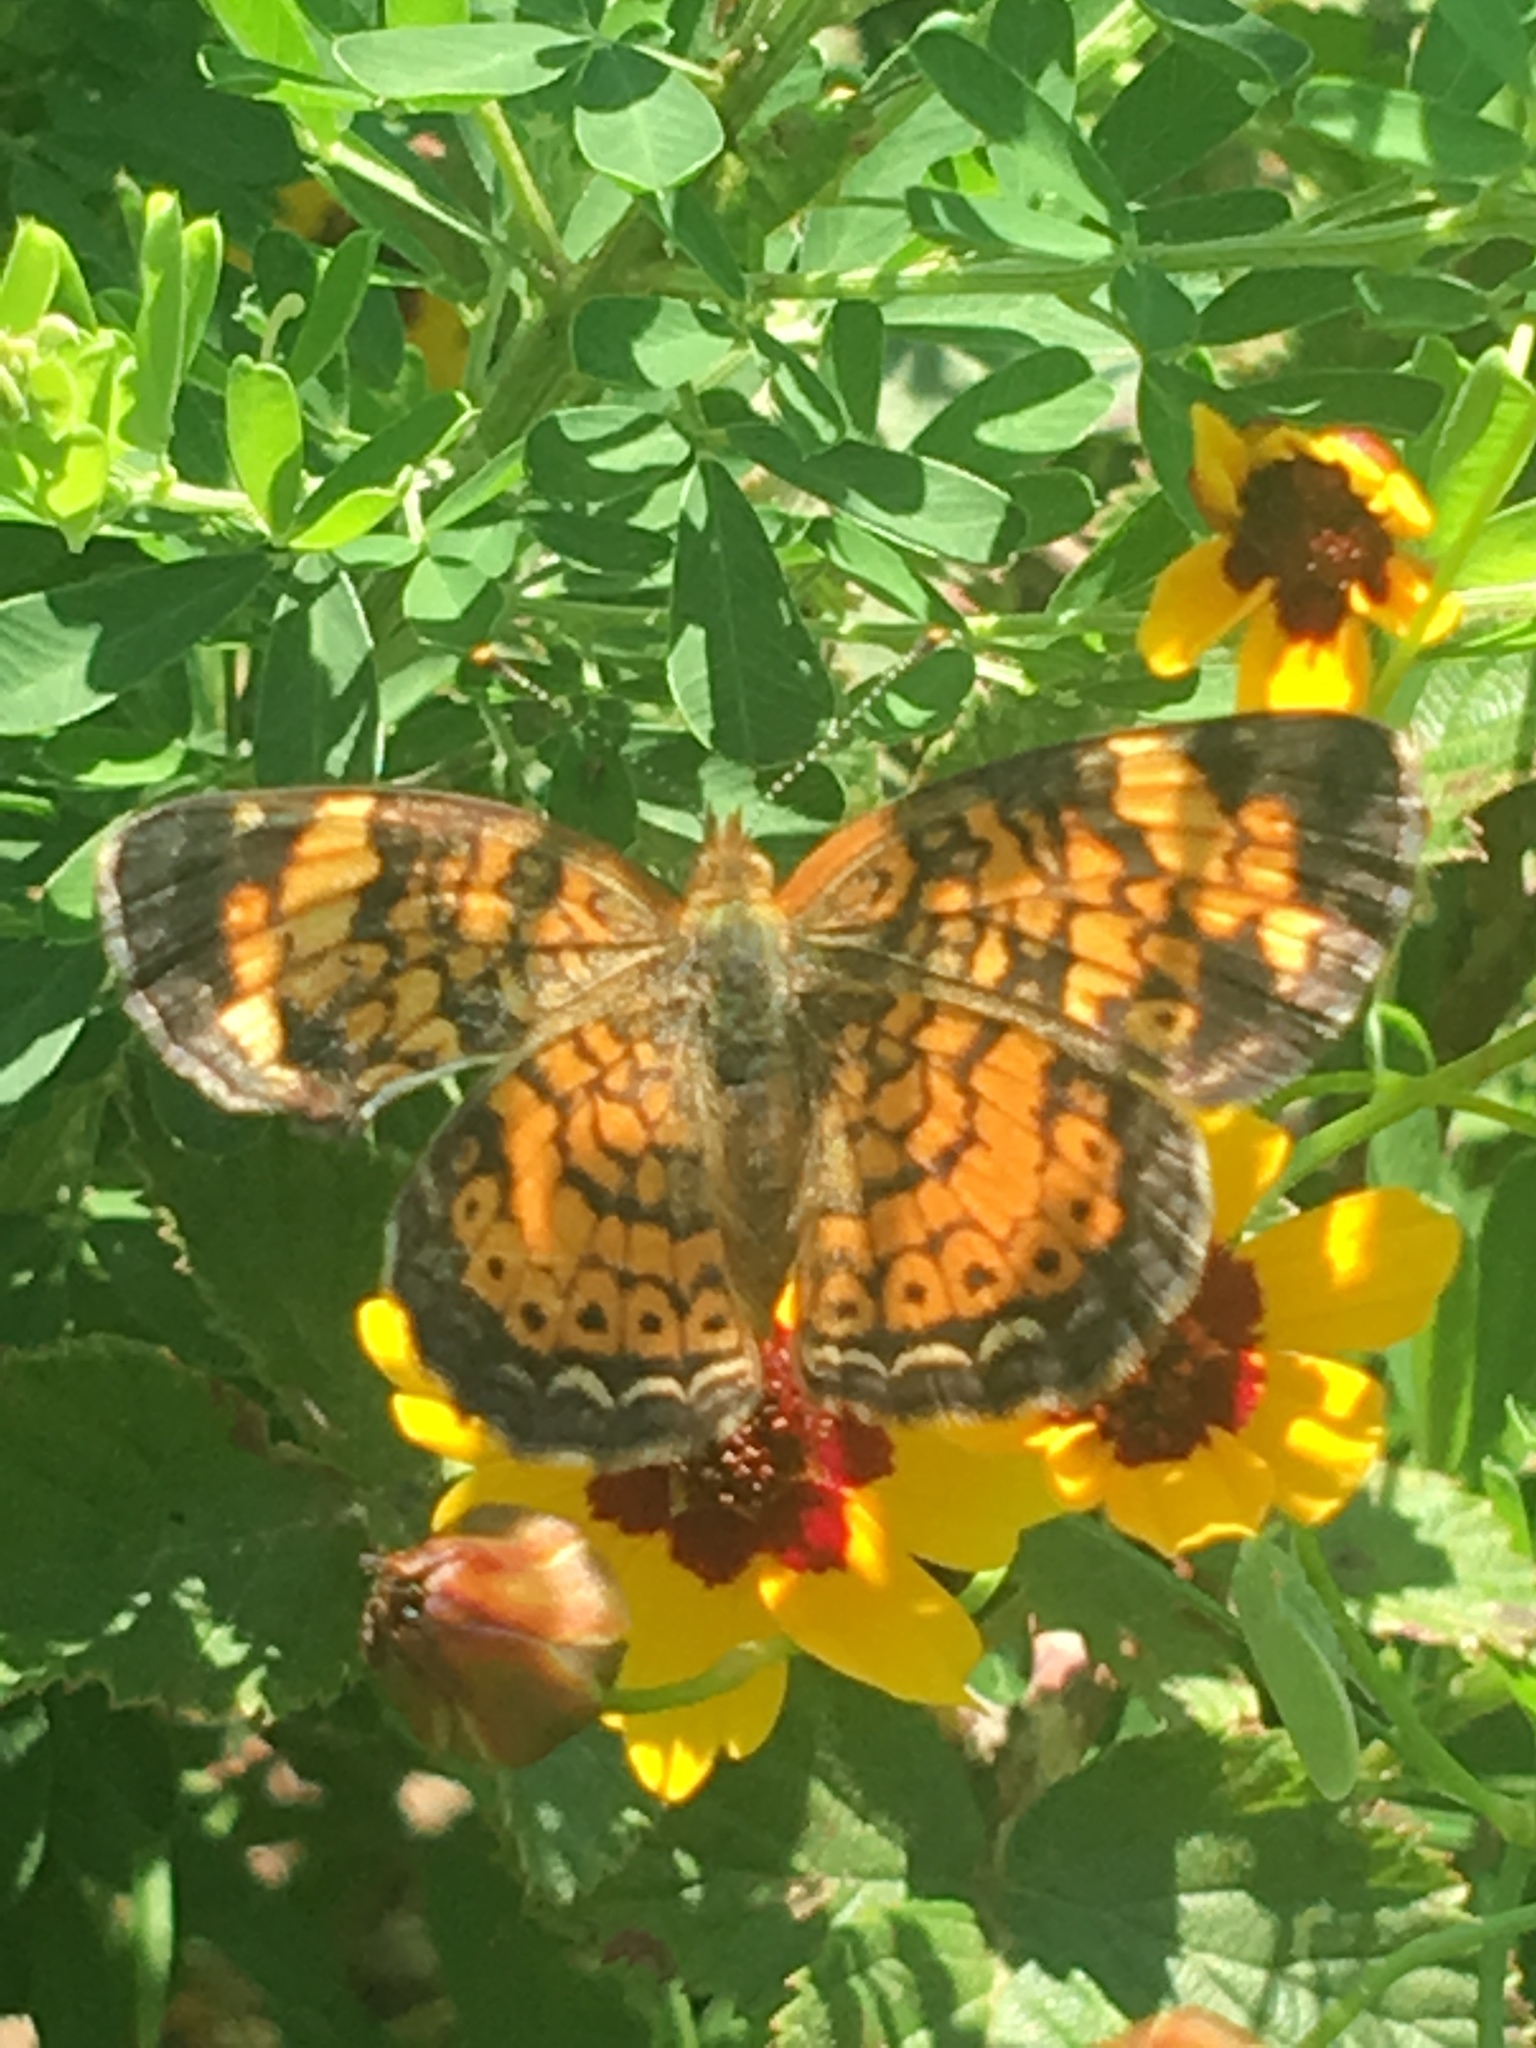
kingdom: Animalia
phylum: Arthropoda
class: Insecta
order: Lepidoptera
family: Nymphalidae
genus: Phyciodes
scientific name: Phyciodes tharos
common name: Pearl crescent
